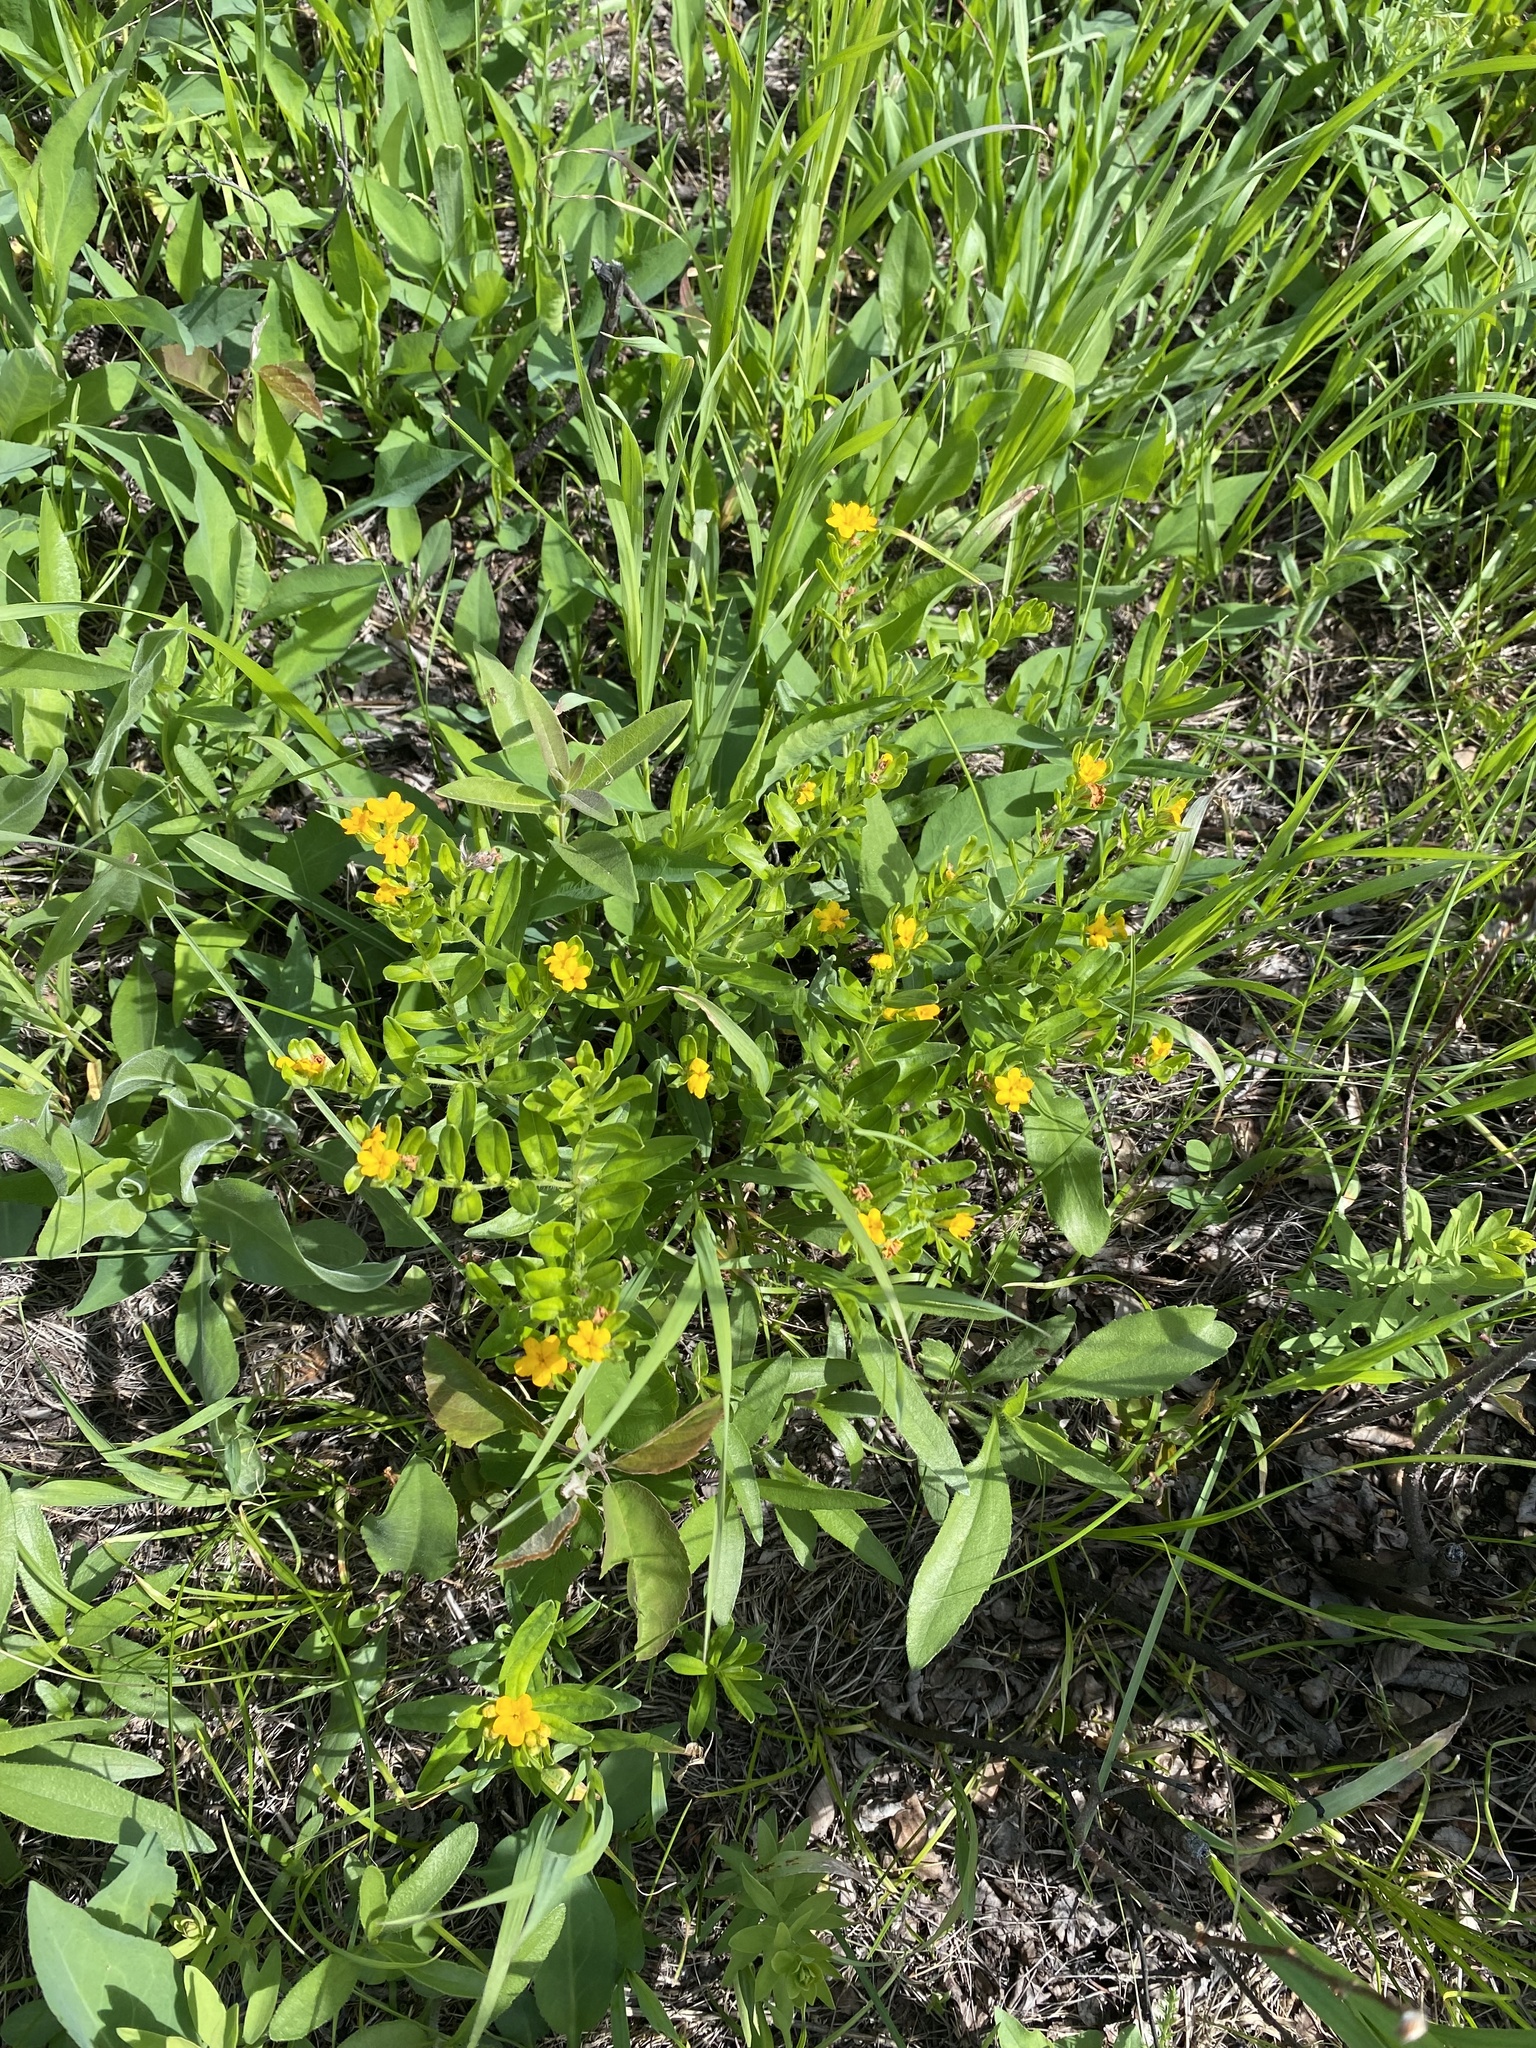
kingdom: Plantae
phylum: Tracheophyta
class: Magnoliopsida
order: Boraginales
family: Boraginaceae
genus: Lithospermum
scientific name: Lithospermum canescens
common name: Hoary puccoon
